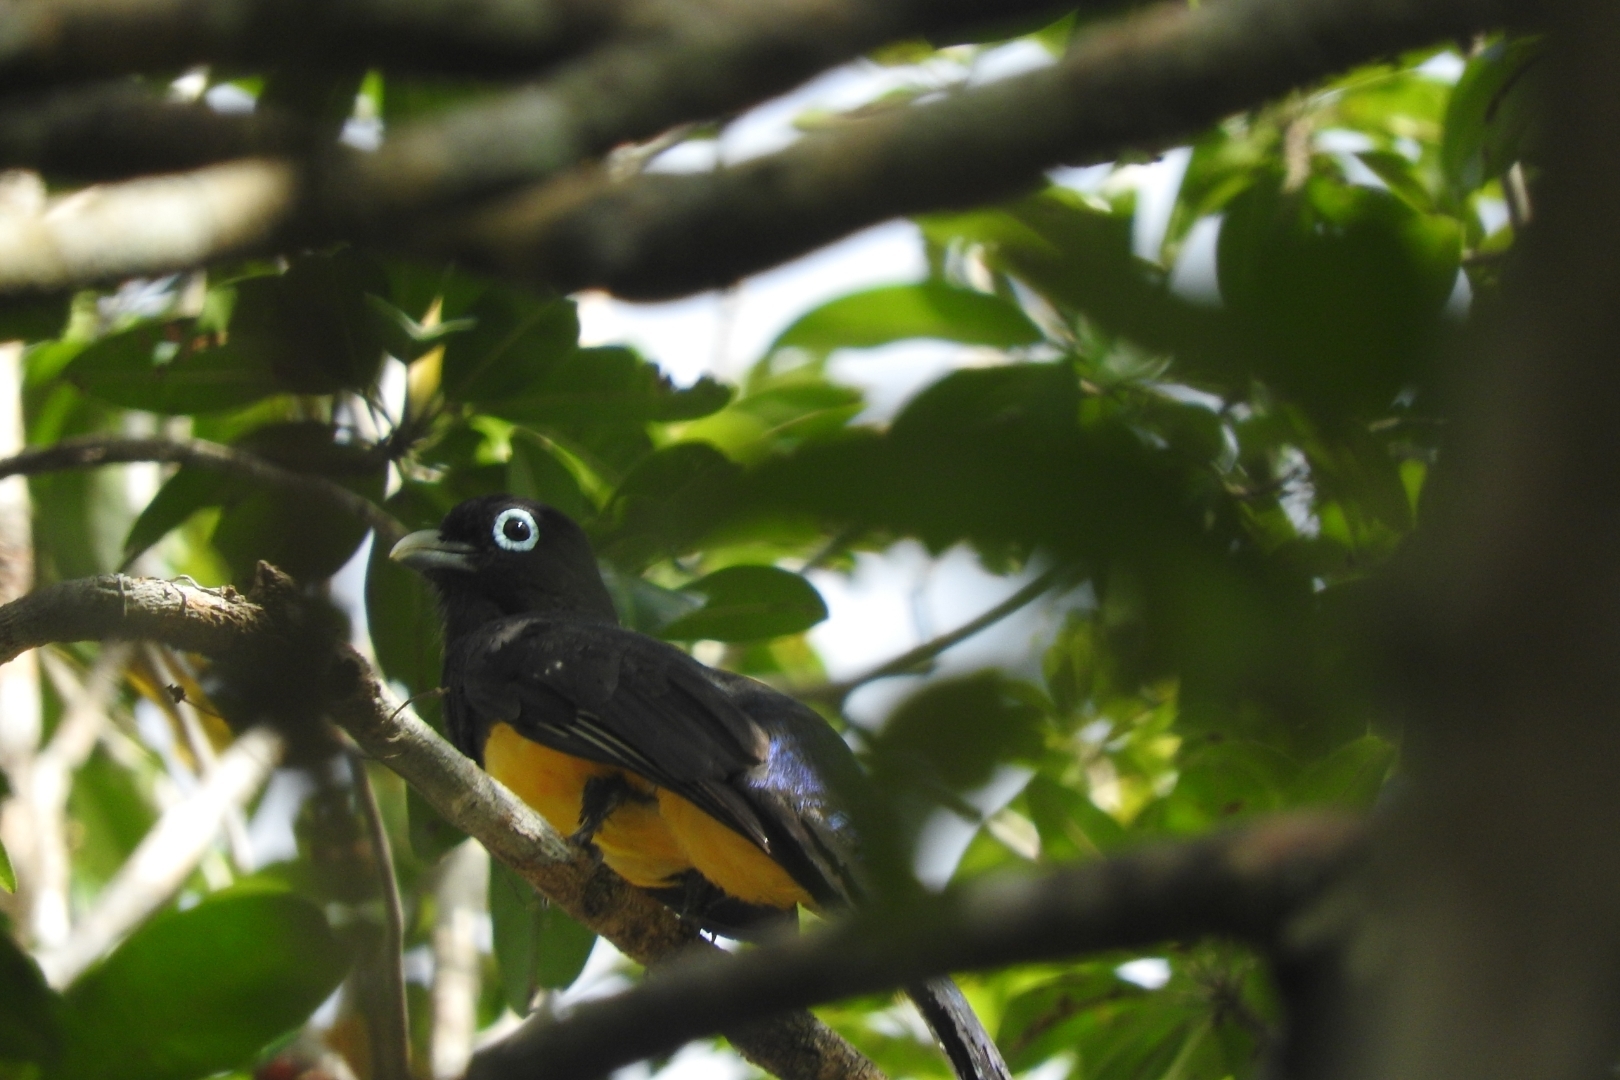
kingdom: Animalia
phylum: Chordata
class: Aves
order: Trogoniformes
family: Trogonidae
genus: Trogon
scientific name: Trogon melanocephalus
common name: Black-headed trogon
